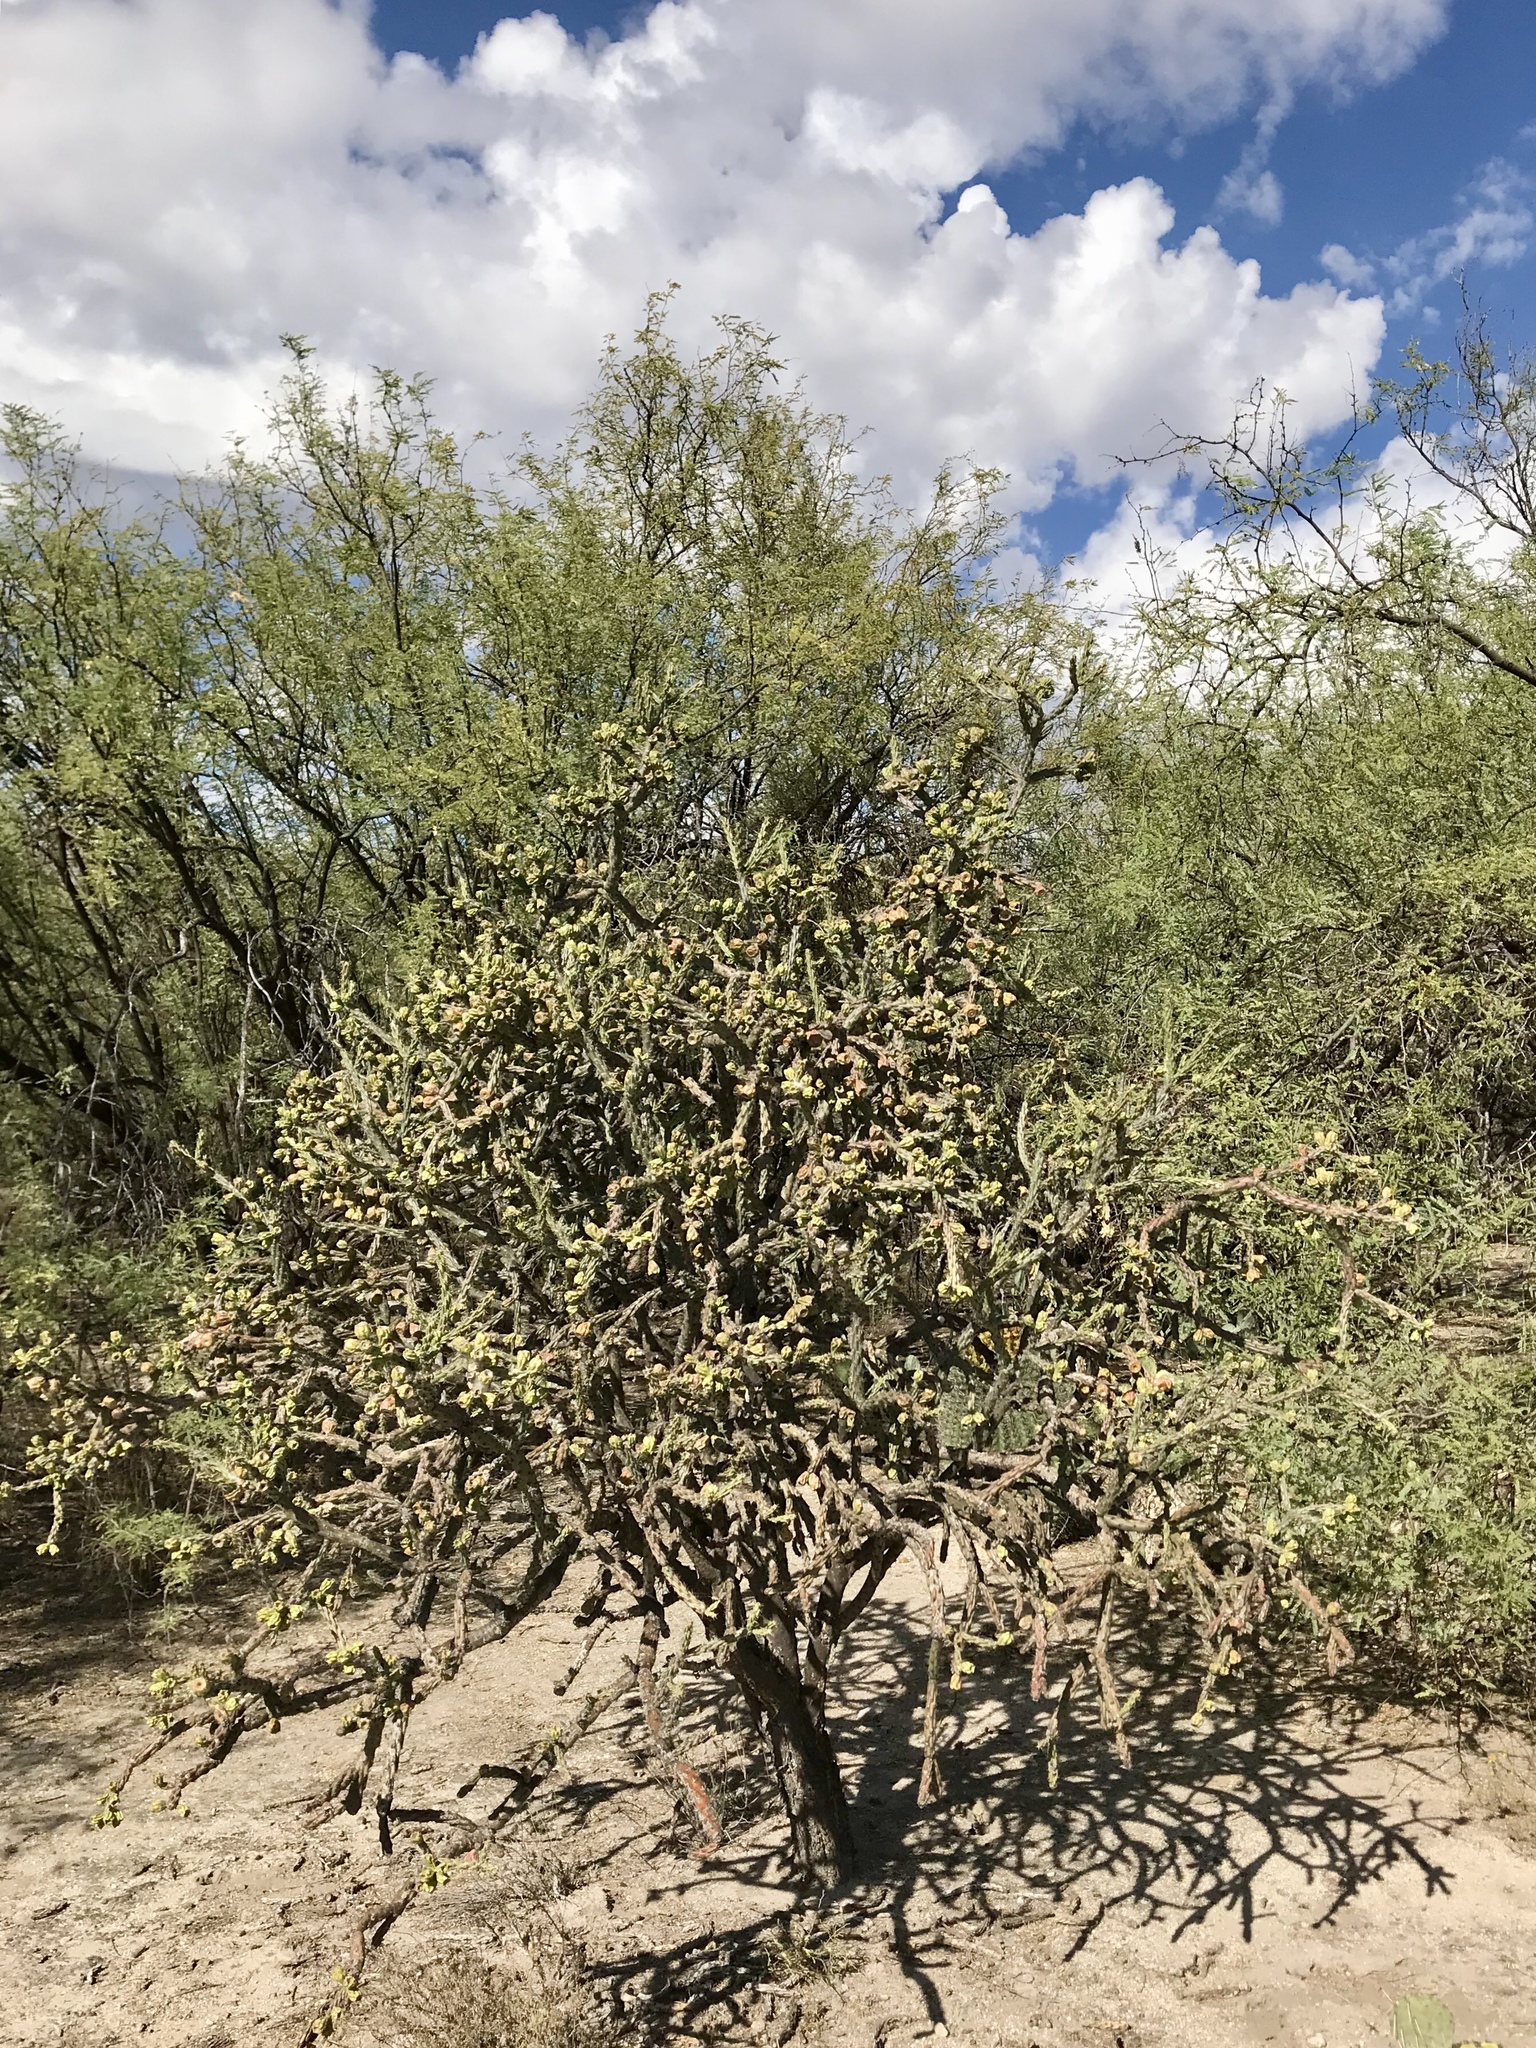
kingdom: Plantae
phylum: Tracheophyta
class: Magnoliopsida
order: Caryophyllales
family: Cactaceae
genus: Cylindropuntia
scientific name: Cylindropuntia thurberi
